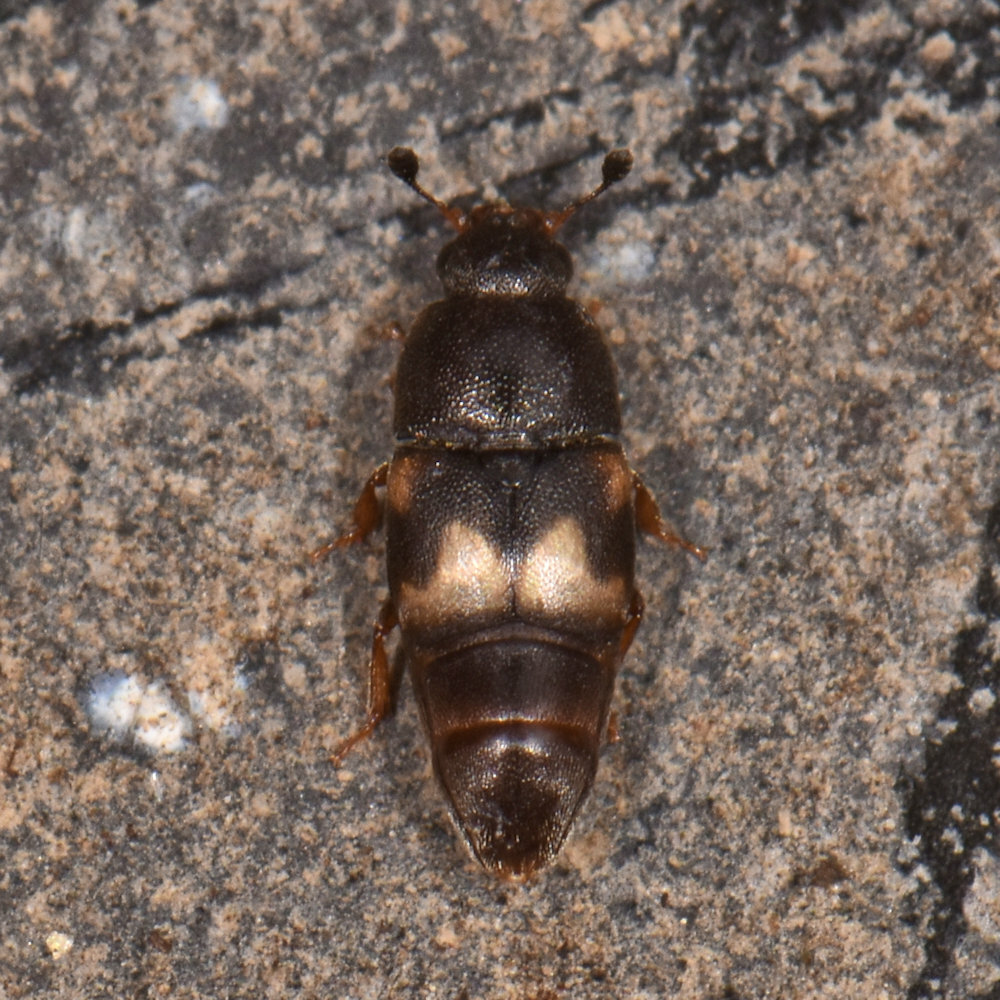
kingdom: Animalia
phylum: Arthropoda
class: Insecta
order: Coleoptera
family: Nitidulidae
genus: Carpophilus
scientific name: Carpophilus hemipterus
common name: Dried fruit beetle
